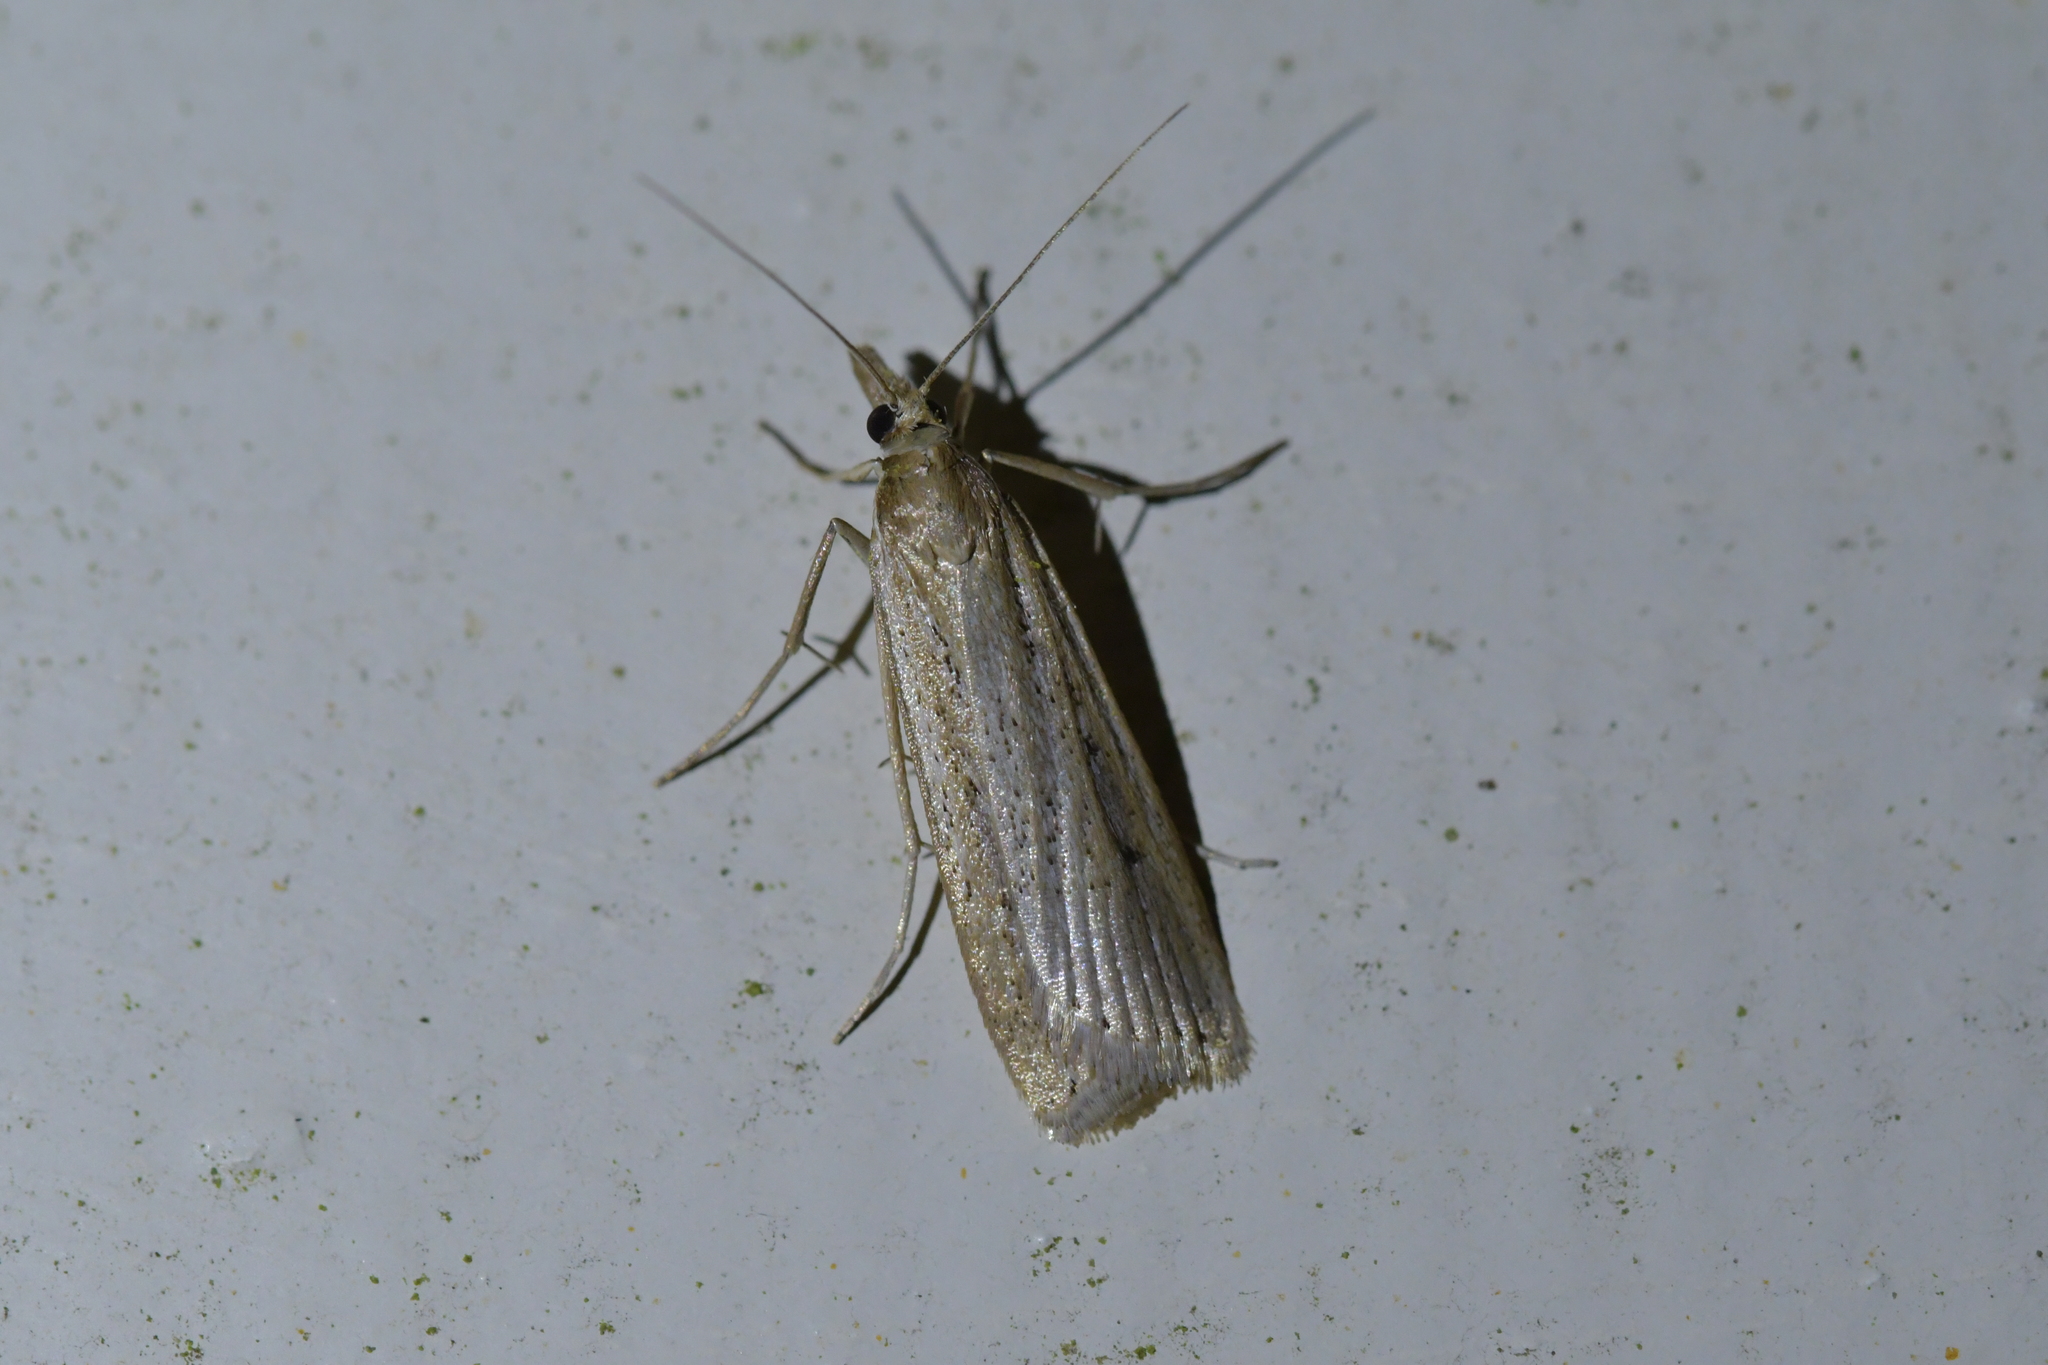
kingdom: Animalia
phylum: Arthropoda
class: Insecta
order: Lepidoptera
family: Crambidae
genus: Eudonia
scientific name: Eudonia sabulosella
